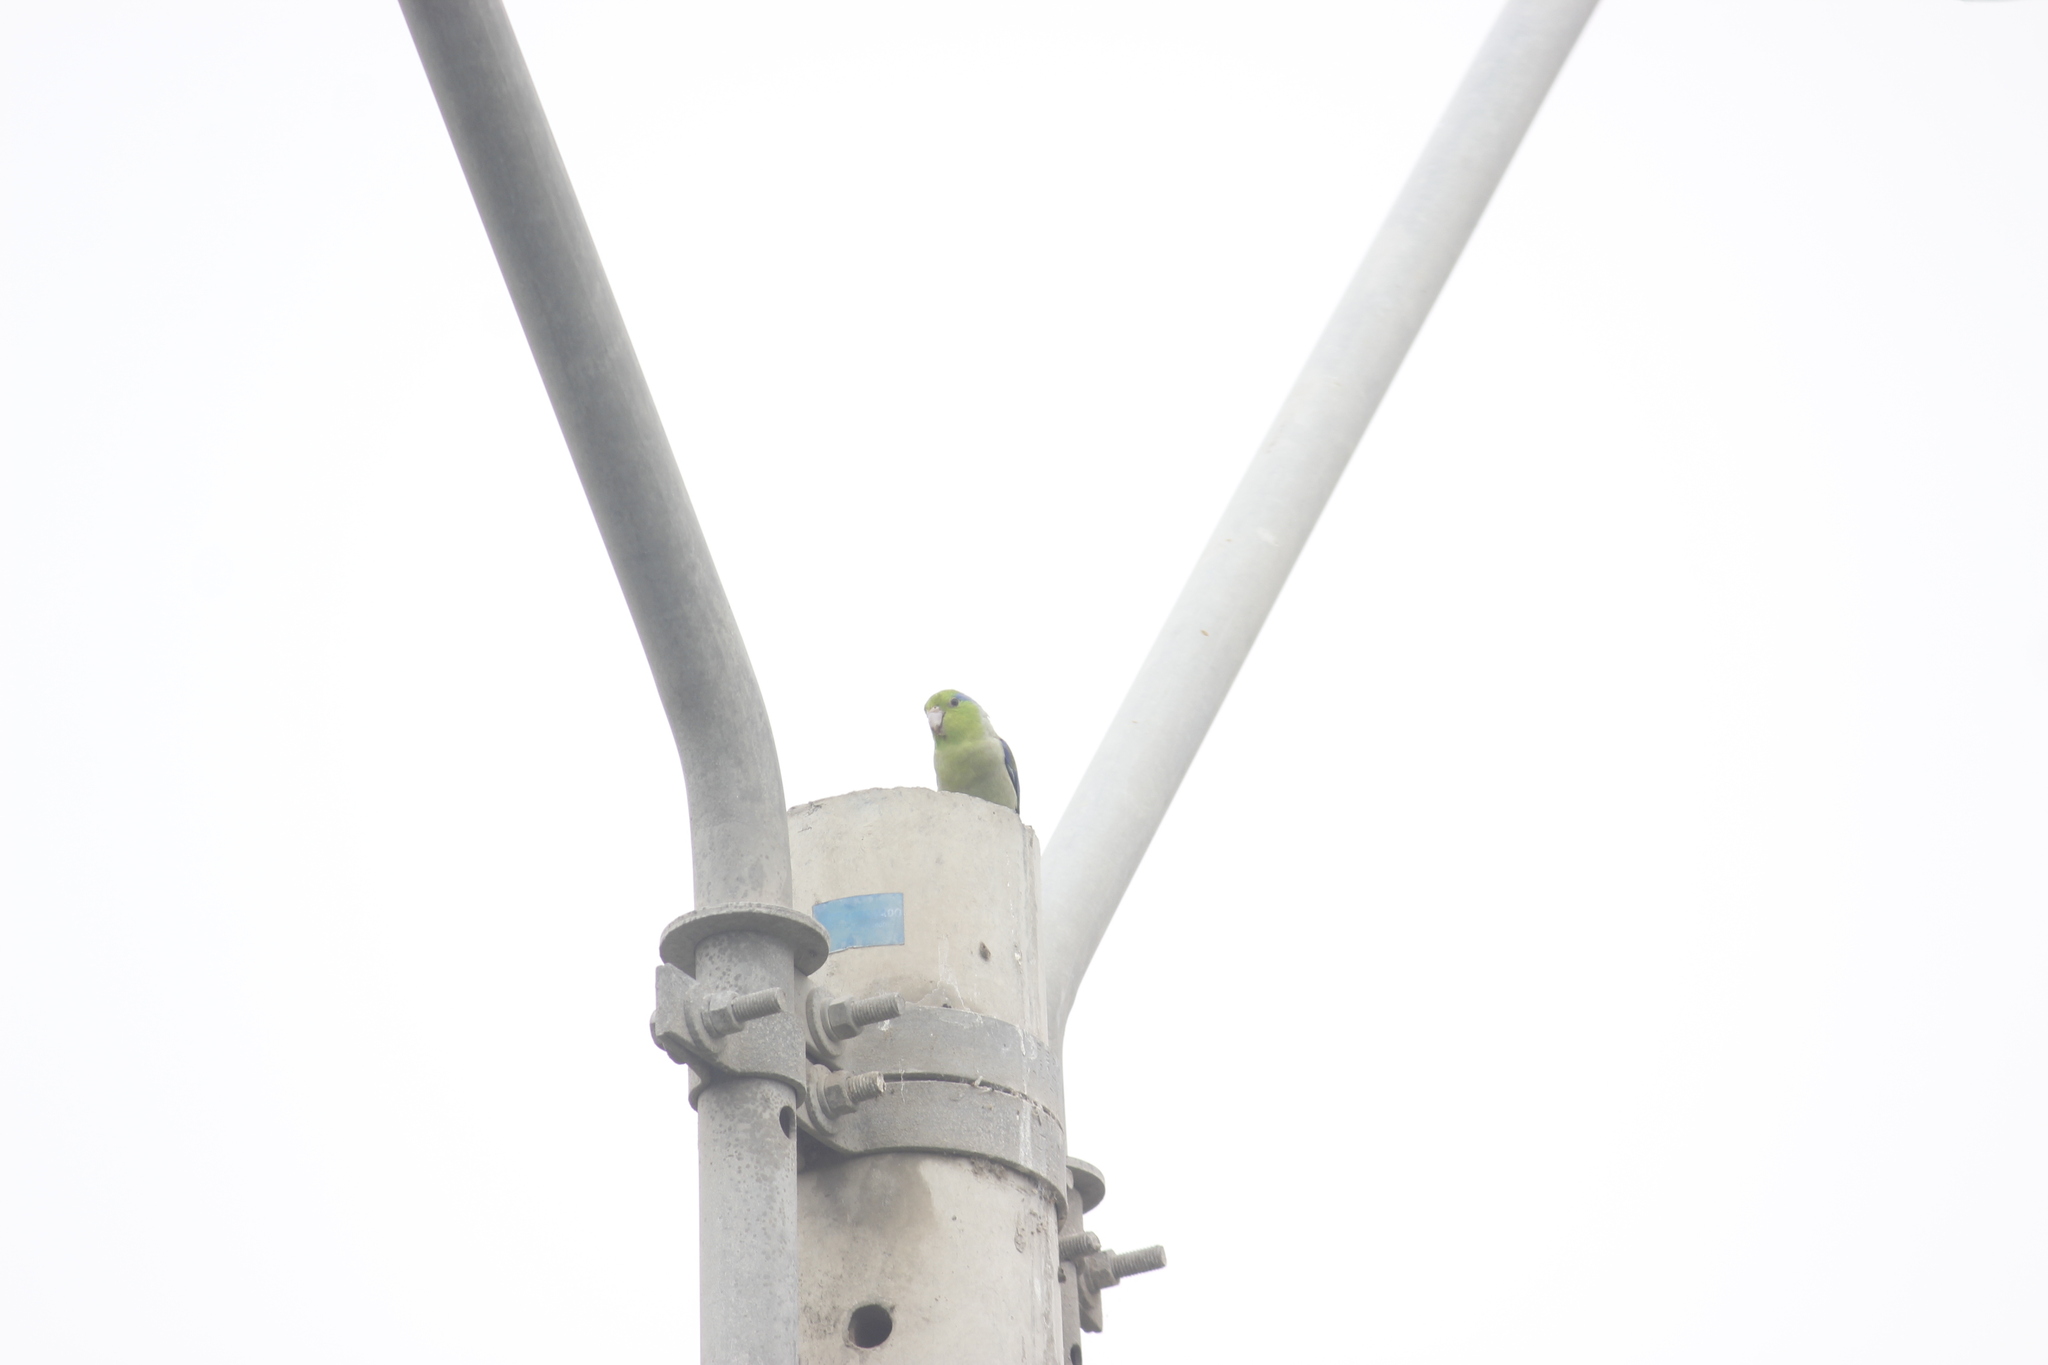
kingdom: Animalia
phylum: Chordata
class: Aves
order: Psittaciformes
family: Psittacidae
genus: Forpus
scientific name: Forpus coelestis
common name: Pacific parrotlet
